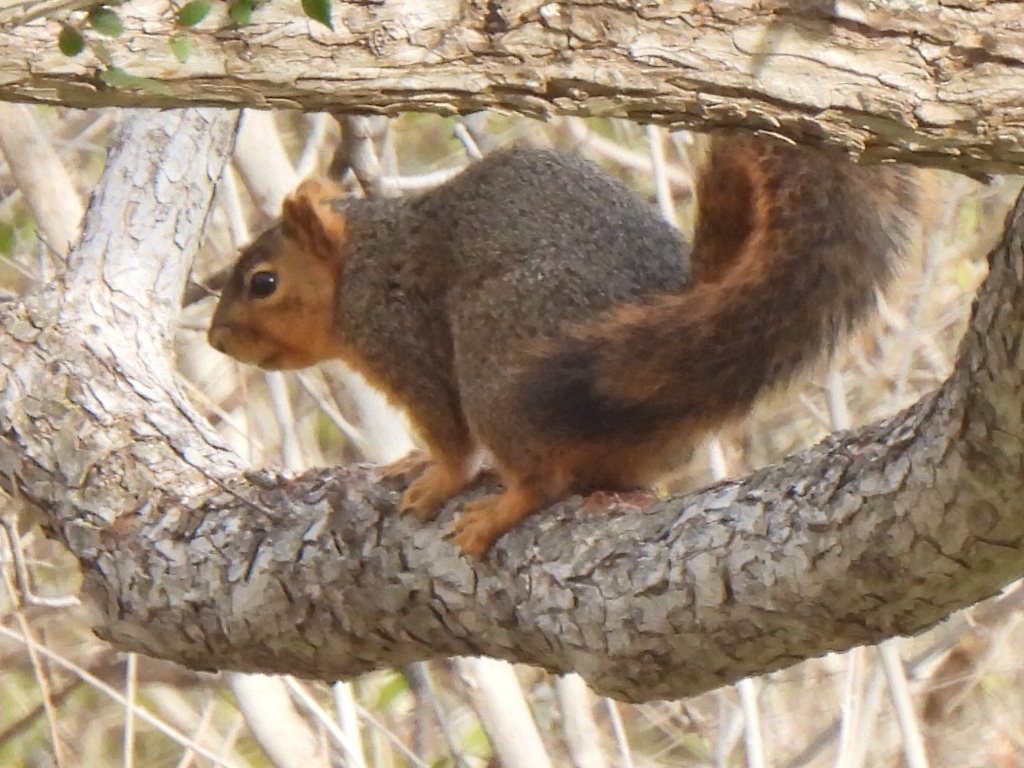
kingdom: Animalia
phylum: Chordata
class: Mammalia
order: Rodentia
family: Sciuridae
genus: Sciurus
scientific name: Sciurus niger
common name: Fox squirrel
